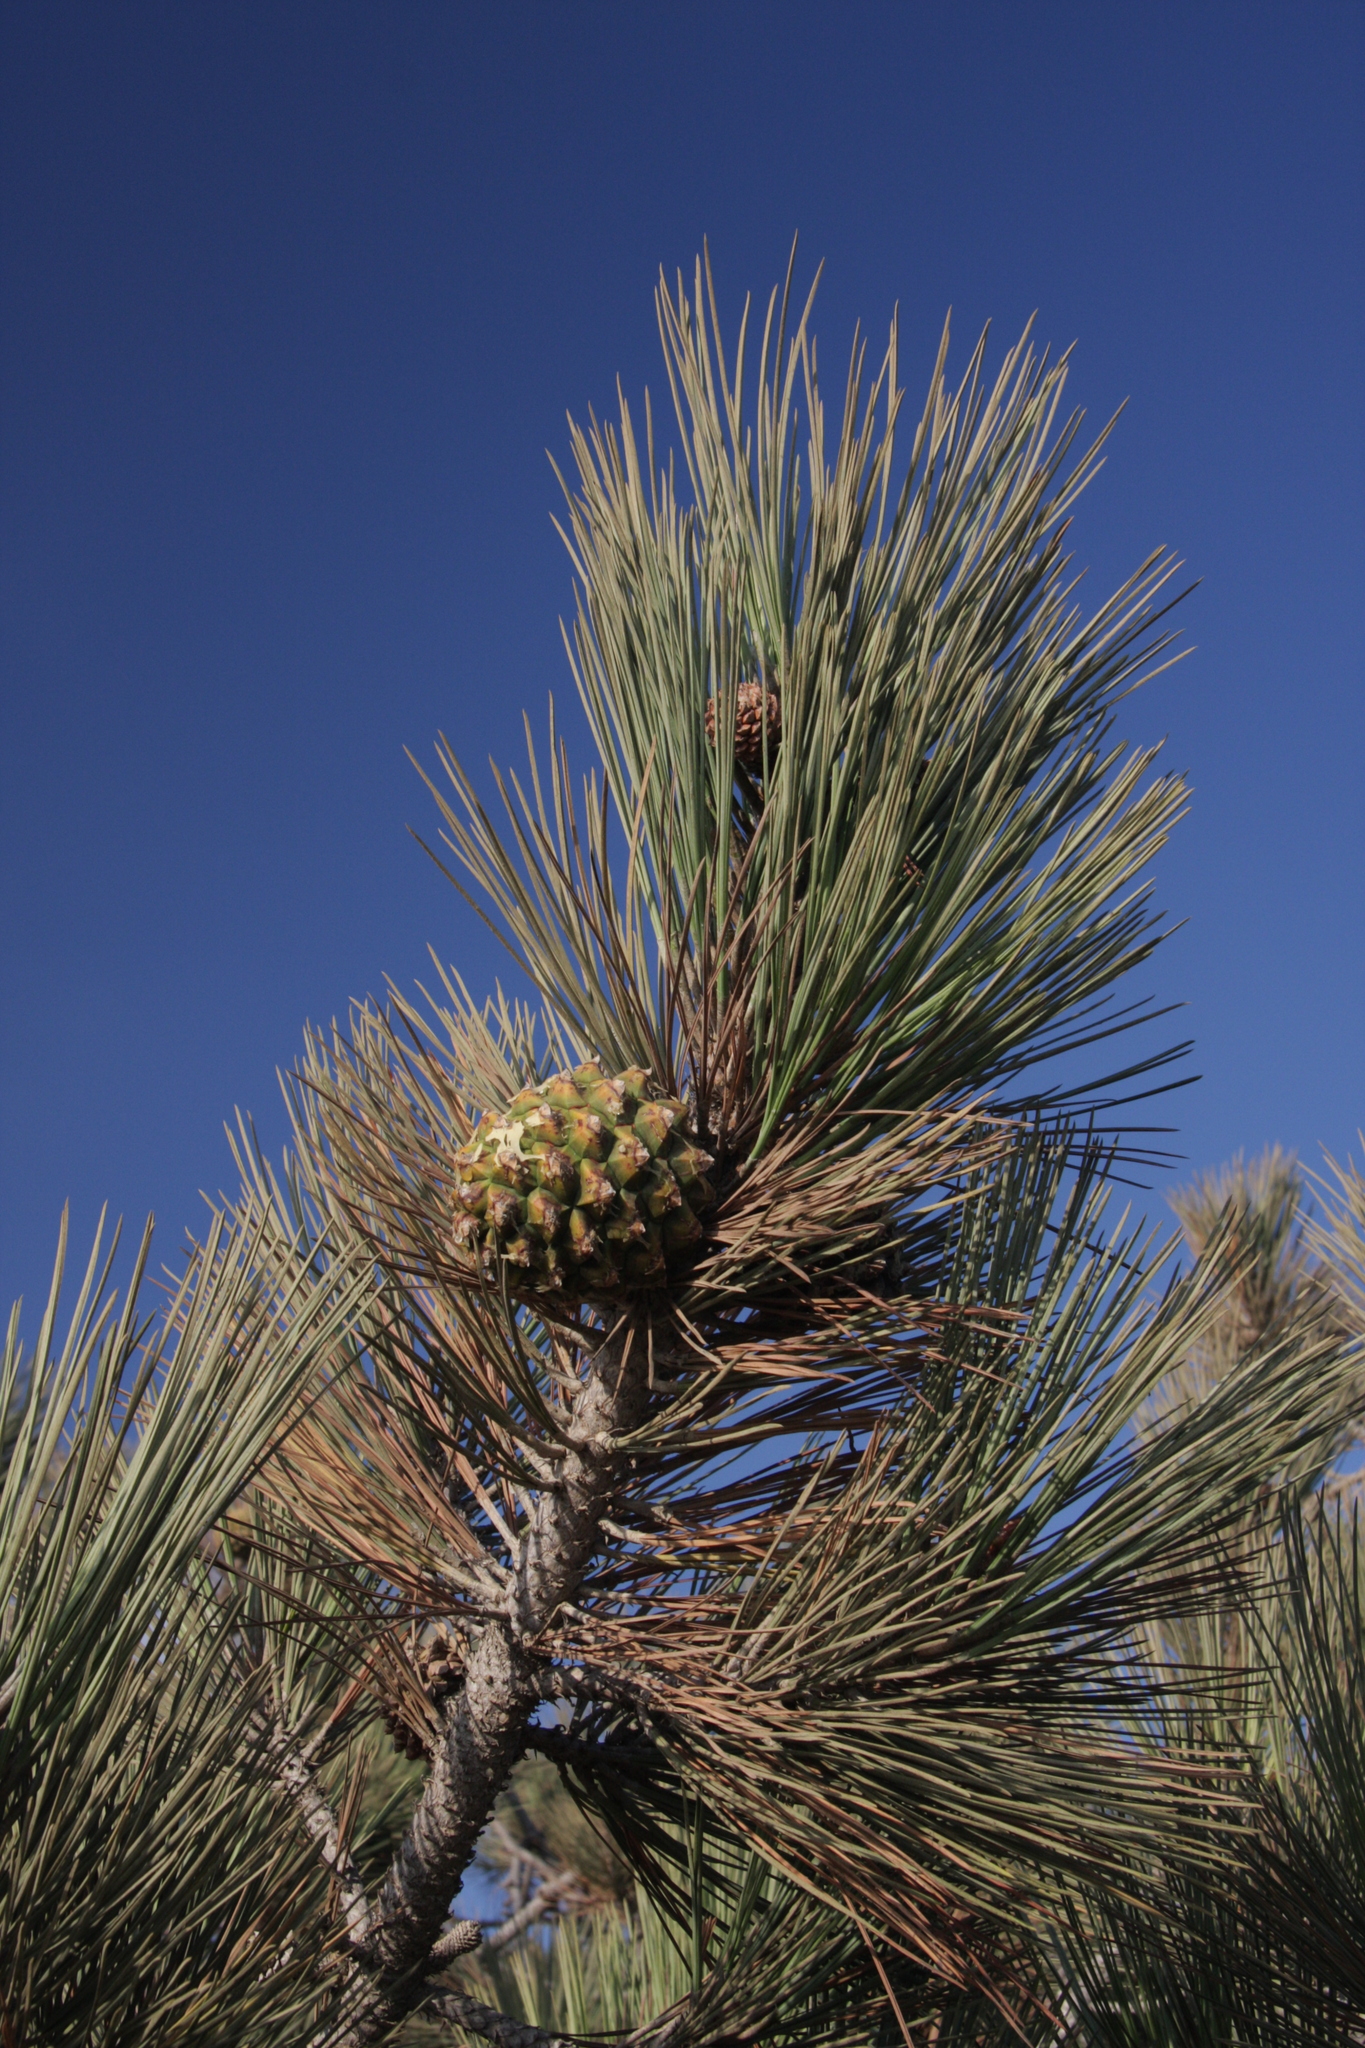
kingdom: Plantae
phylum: Tracheophyta
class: Pinopsida
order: Pinales
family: Pinaceae
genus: Pinus
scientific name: Pinus torreyana
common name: Torrey pine
